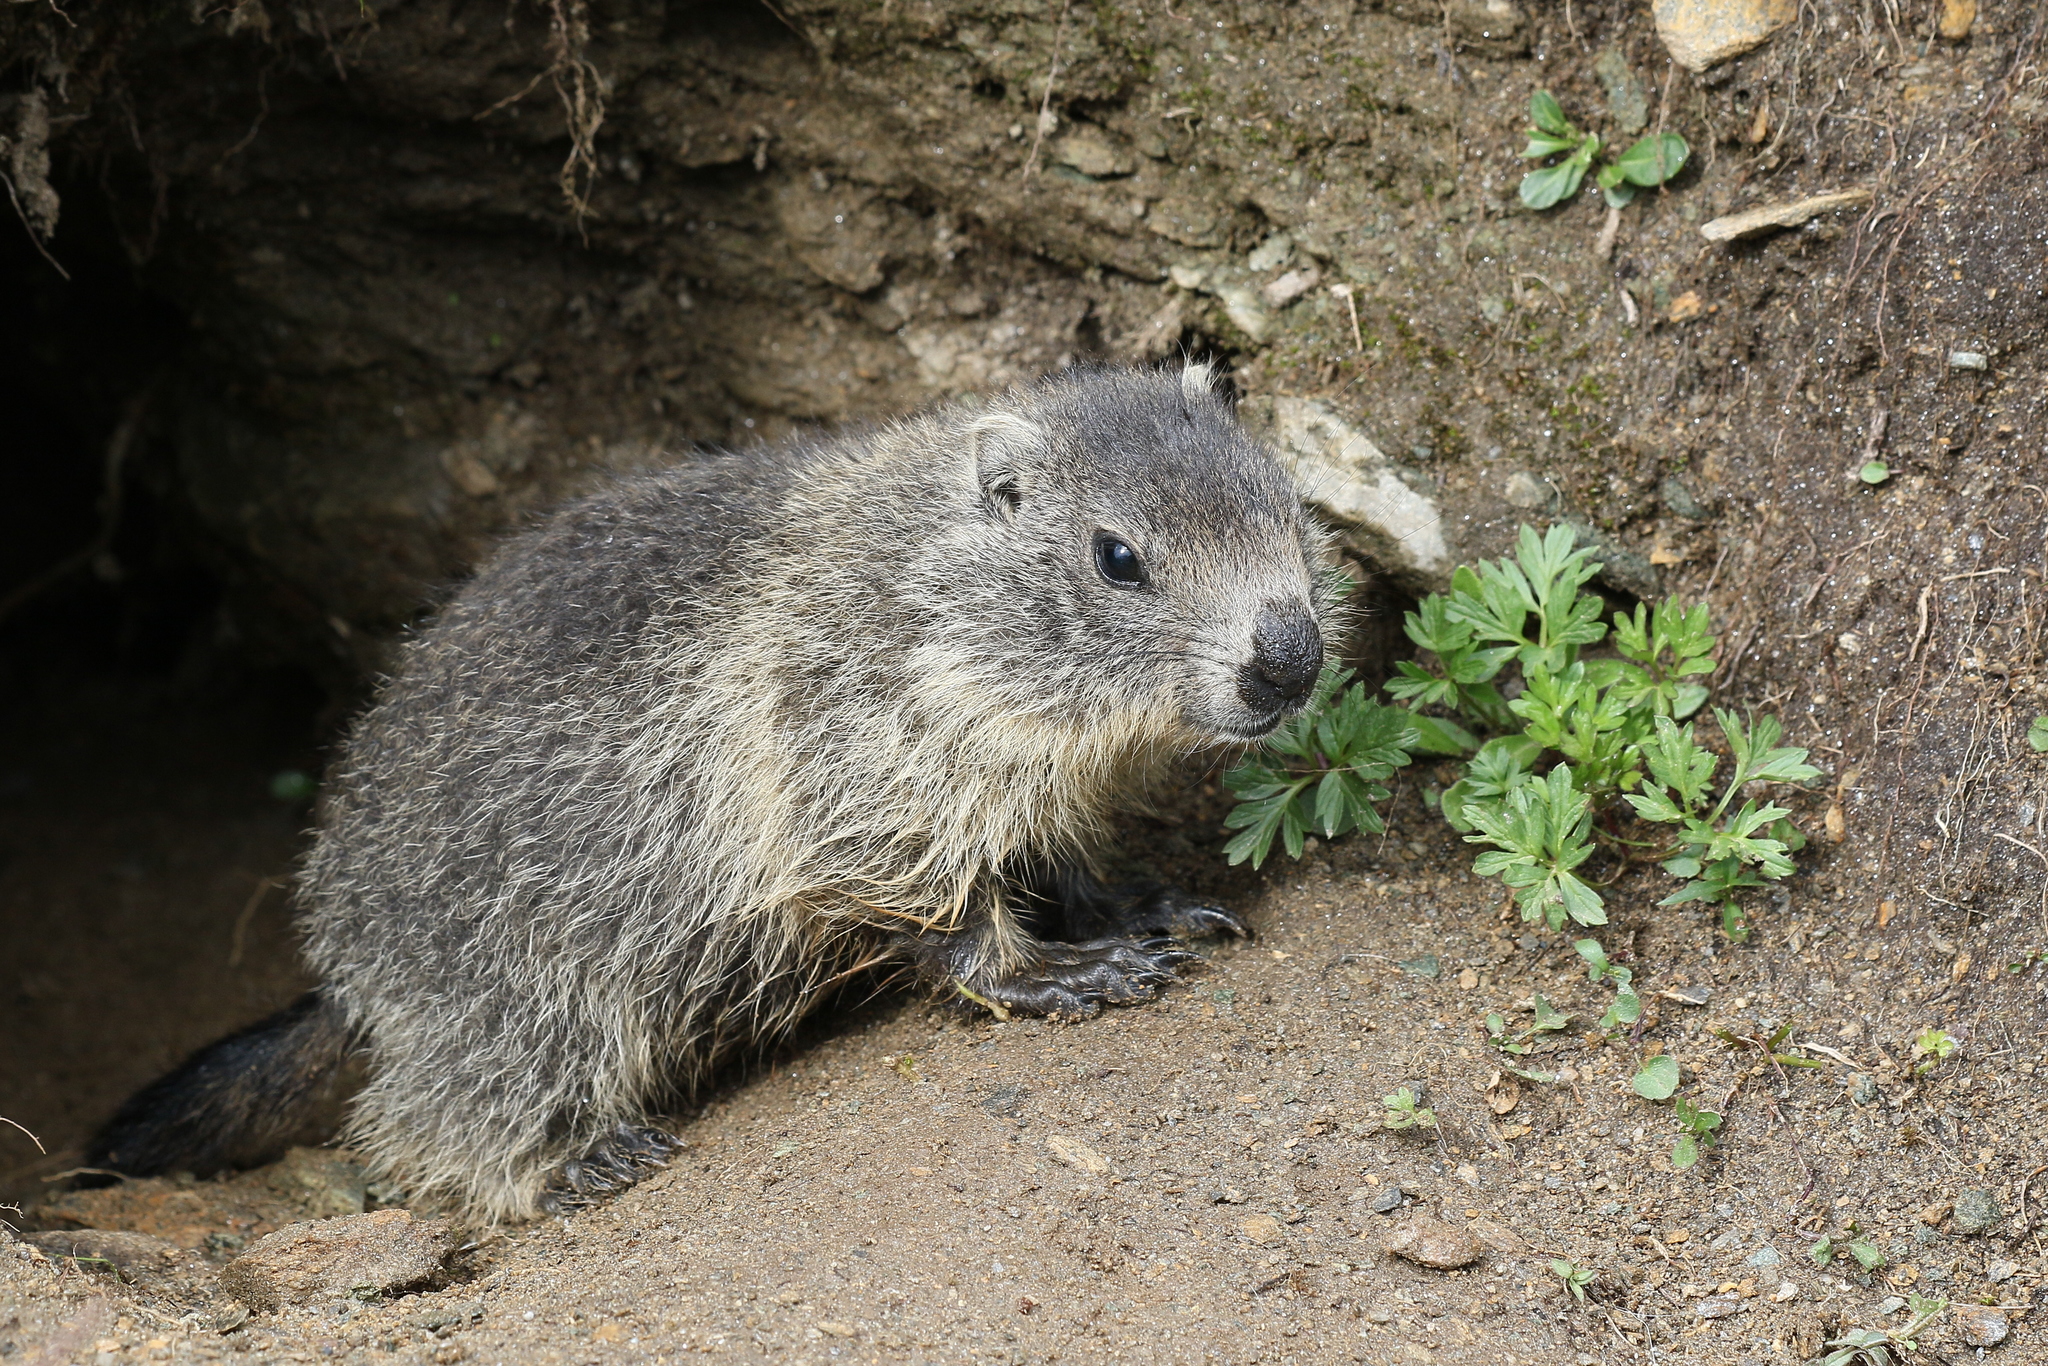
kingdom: Animalia
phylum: Chordata
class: Mammalia
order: Rodentia
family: Sciuridae
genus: Marmota
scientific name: Marmota marmota
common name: Alpine marmot
